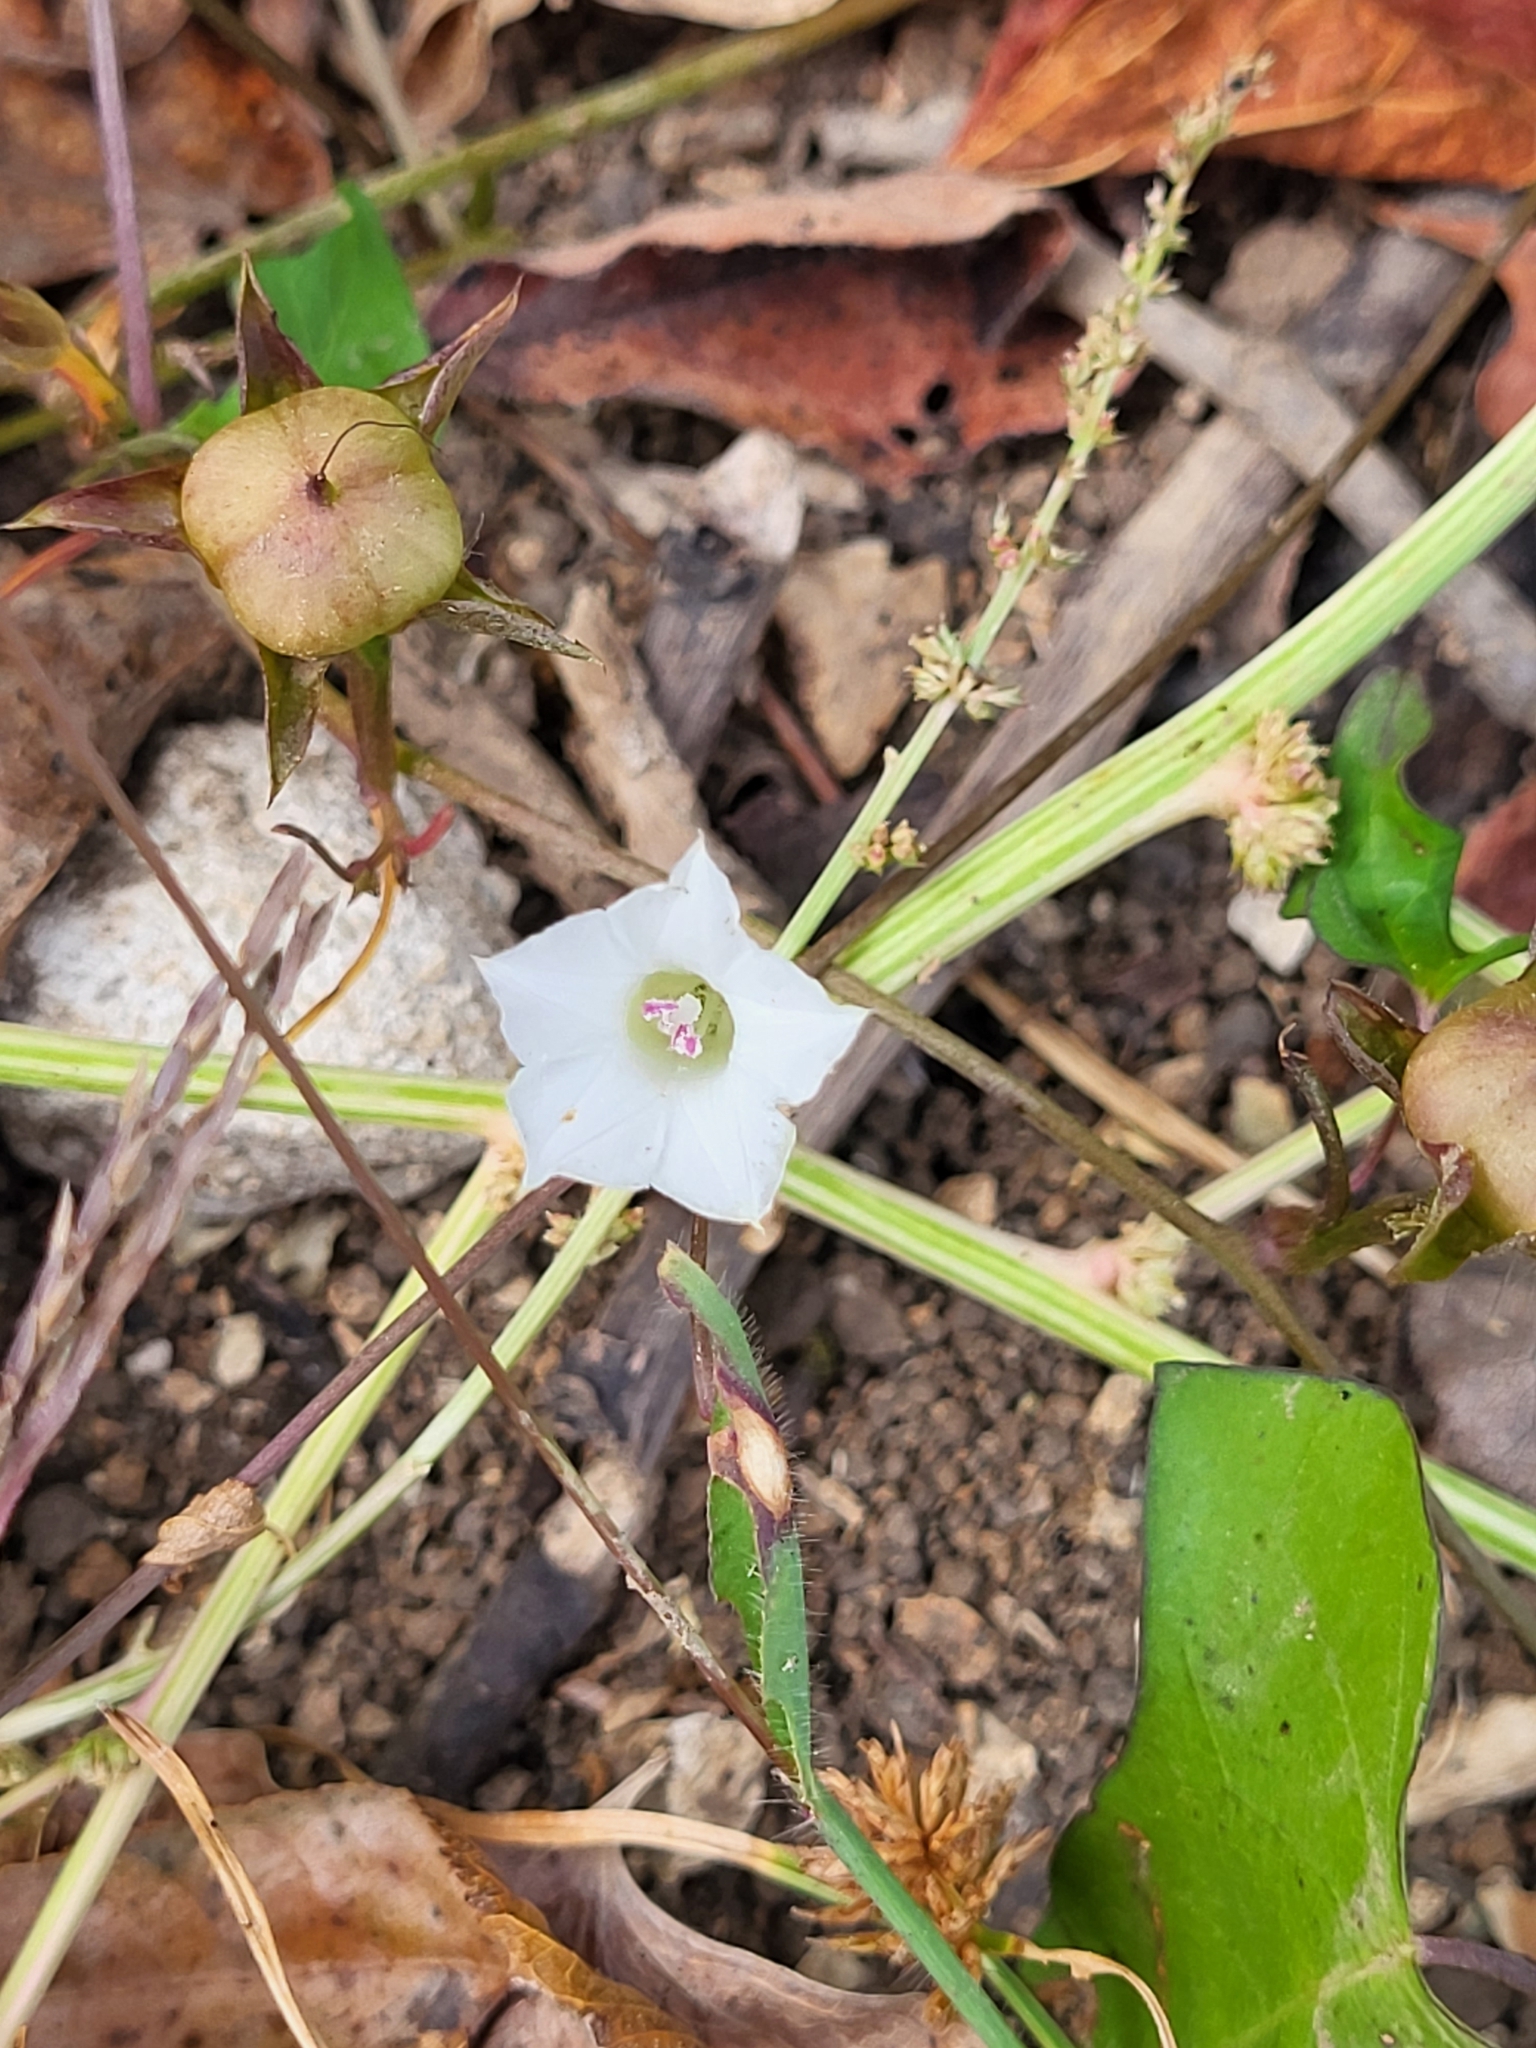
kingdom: Plantae
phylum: Tracheophyta
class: Magnoliopsida
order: Solanales
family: Convolvulaceae
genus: Ipomoea
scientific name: Ipomoea lacunosa
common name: White morning-glory
